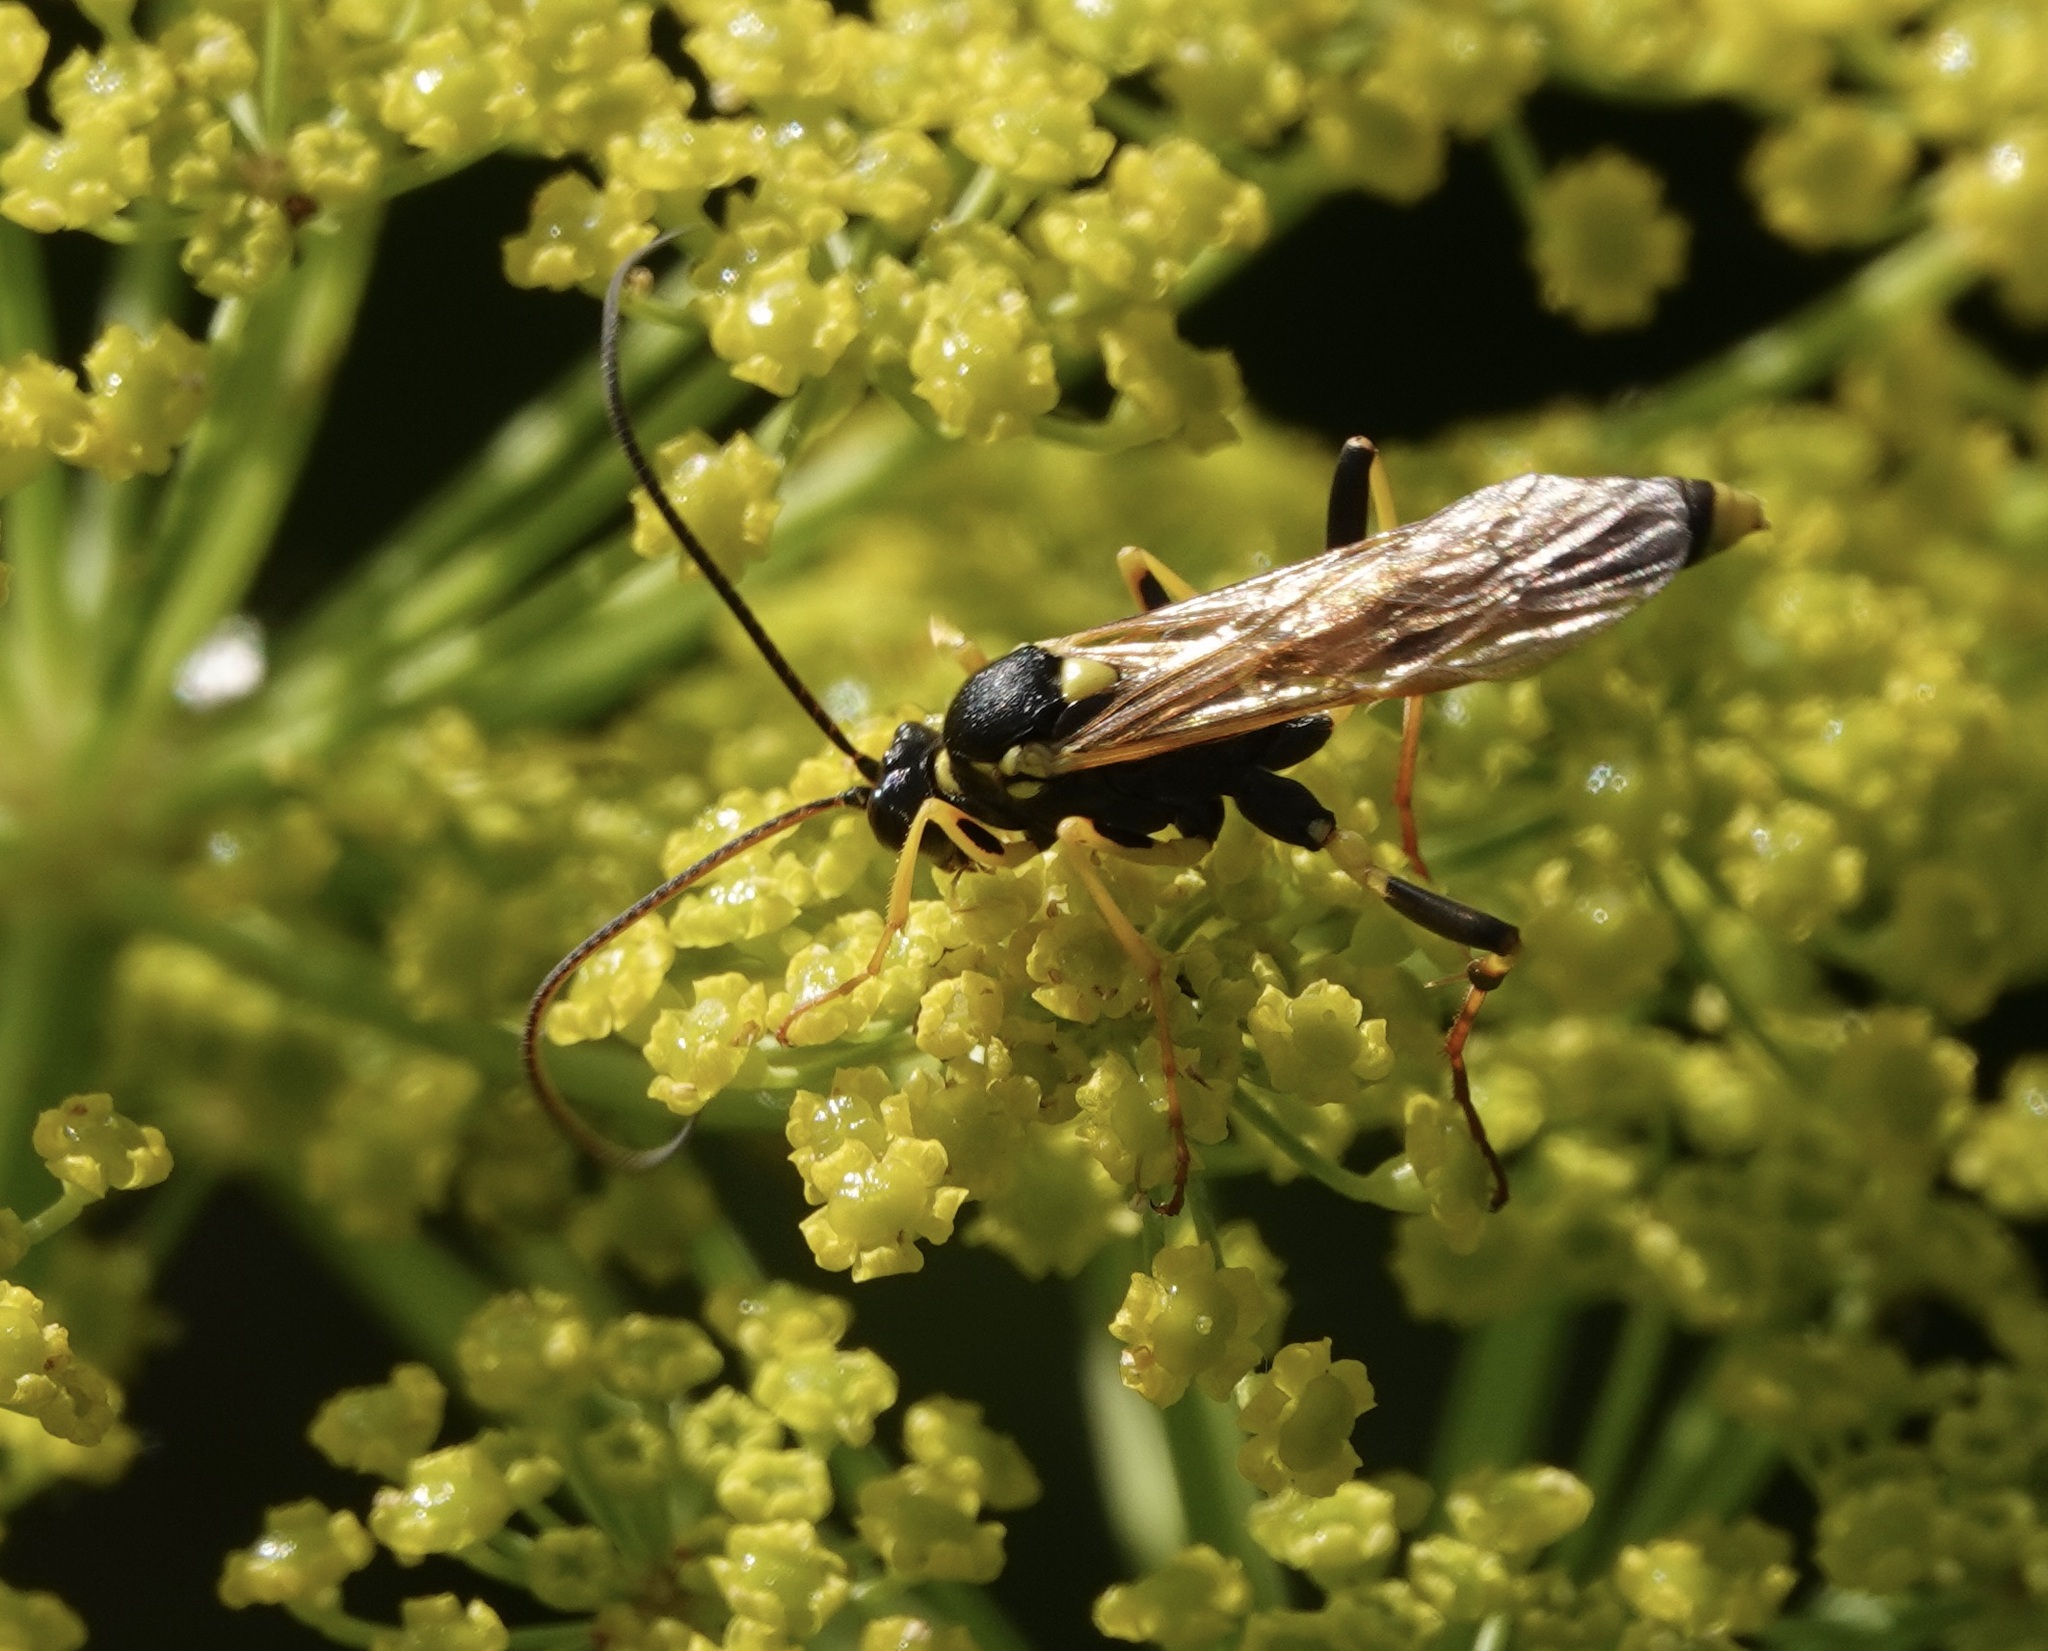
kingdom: Animalia
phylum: Arthropoda
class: Insecta
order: Hymenoptera
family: Ichneumonidae
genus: Amblyteles
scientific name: Amblyteles armatorius
